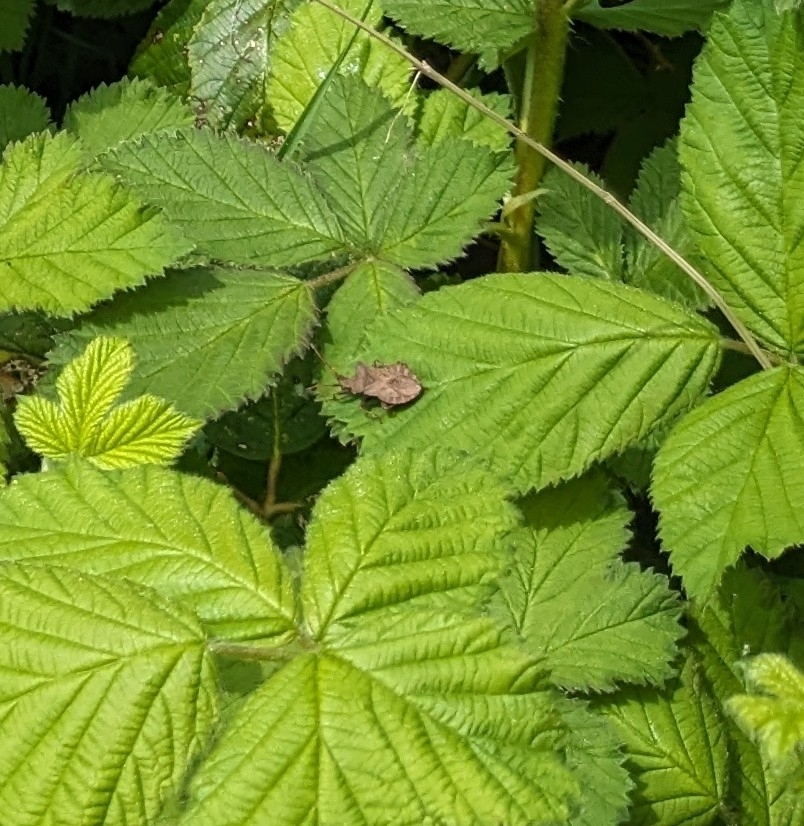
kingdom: Animalia
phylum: Arthropoda
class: Insecta
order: Hemiptera
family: Coreidae
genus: Coreus
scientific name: Coreus marginatus
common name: Dock bug
